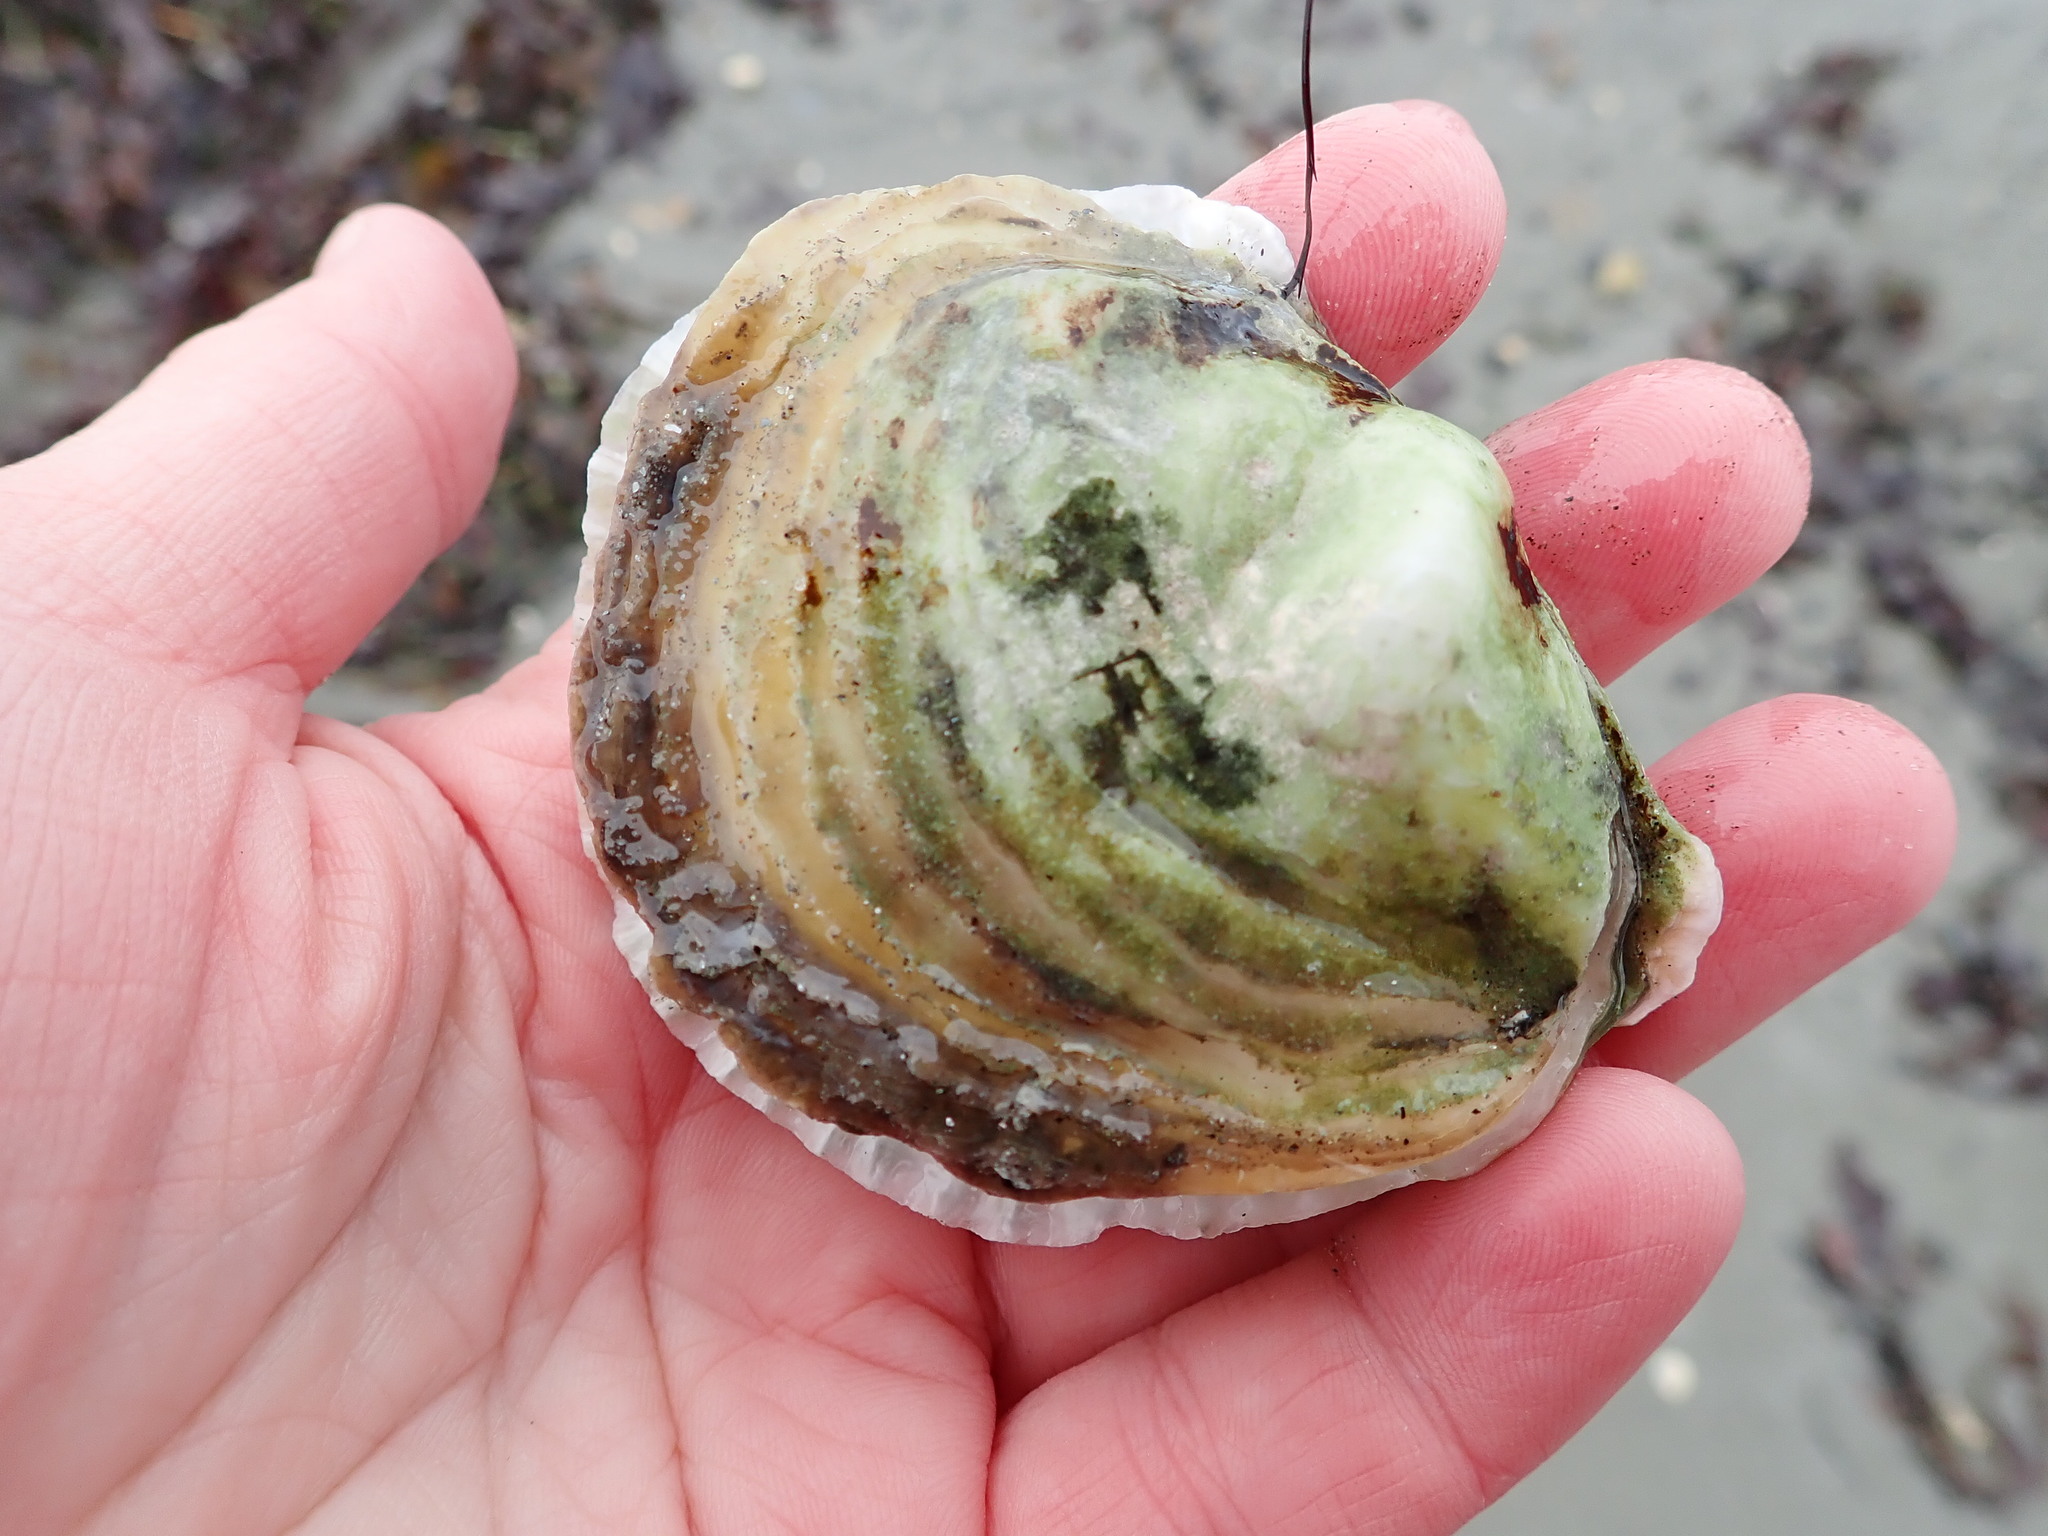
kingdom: Animalia
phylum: Mollusca
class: Bivalvia
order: Ostreida
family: Ostreidae
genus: Ostrea
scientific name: Ostrea edulis
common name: Flat oyster
